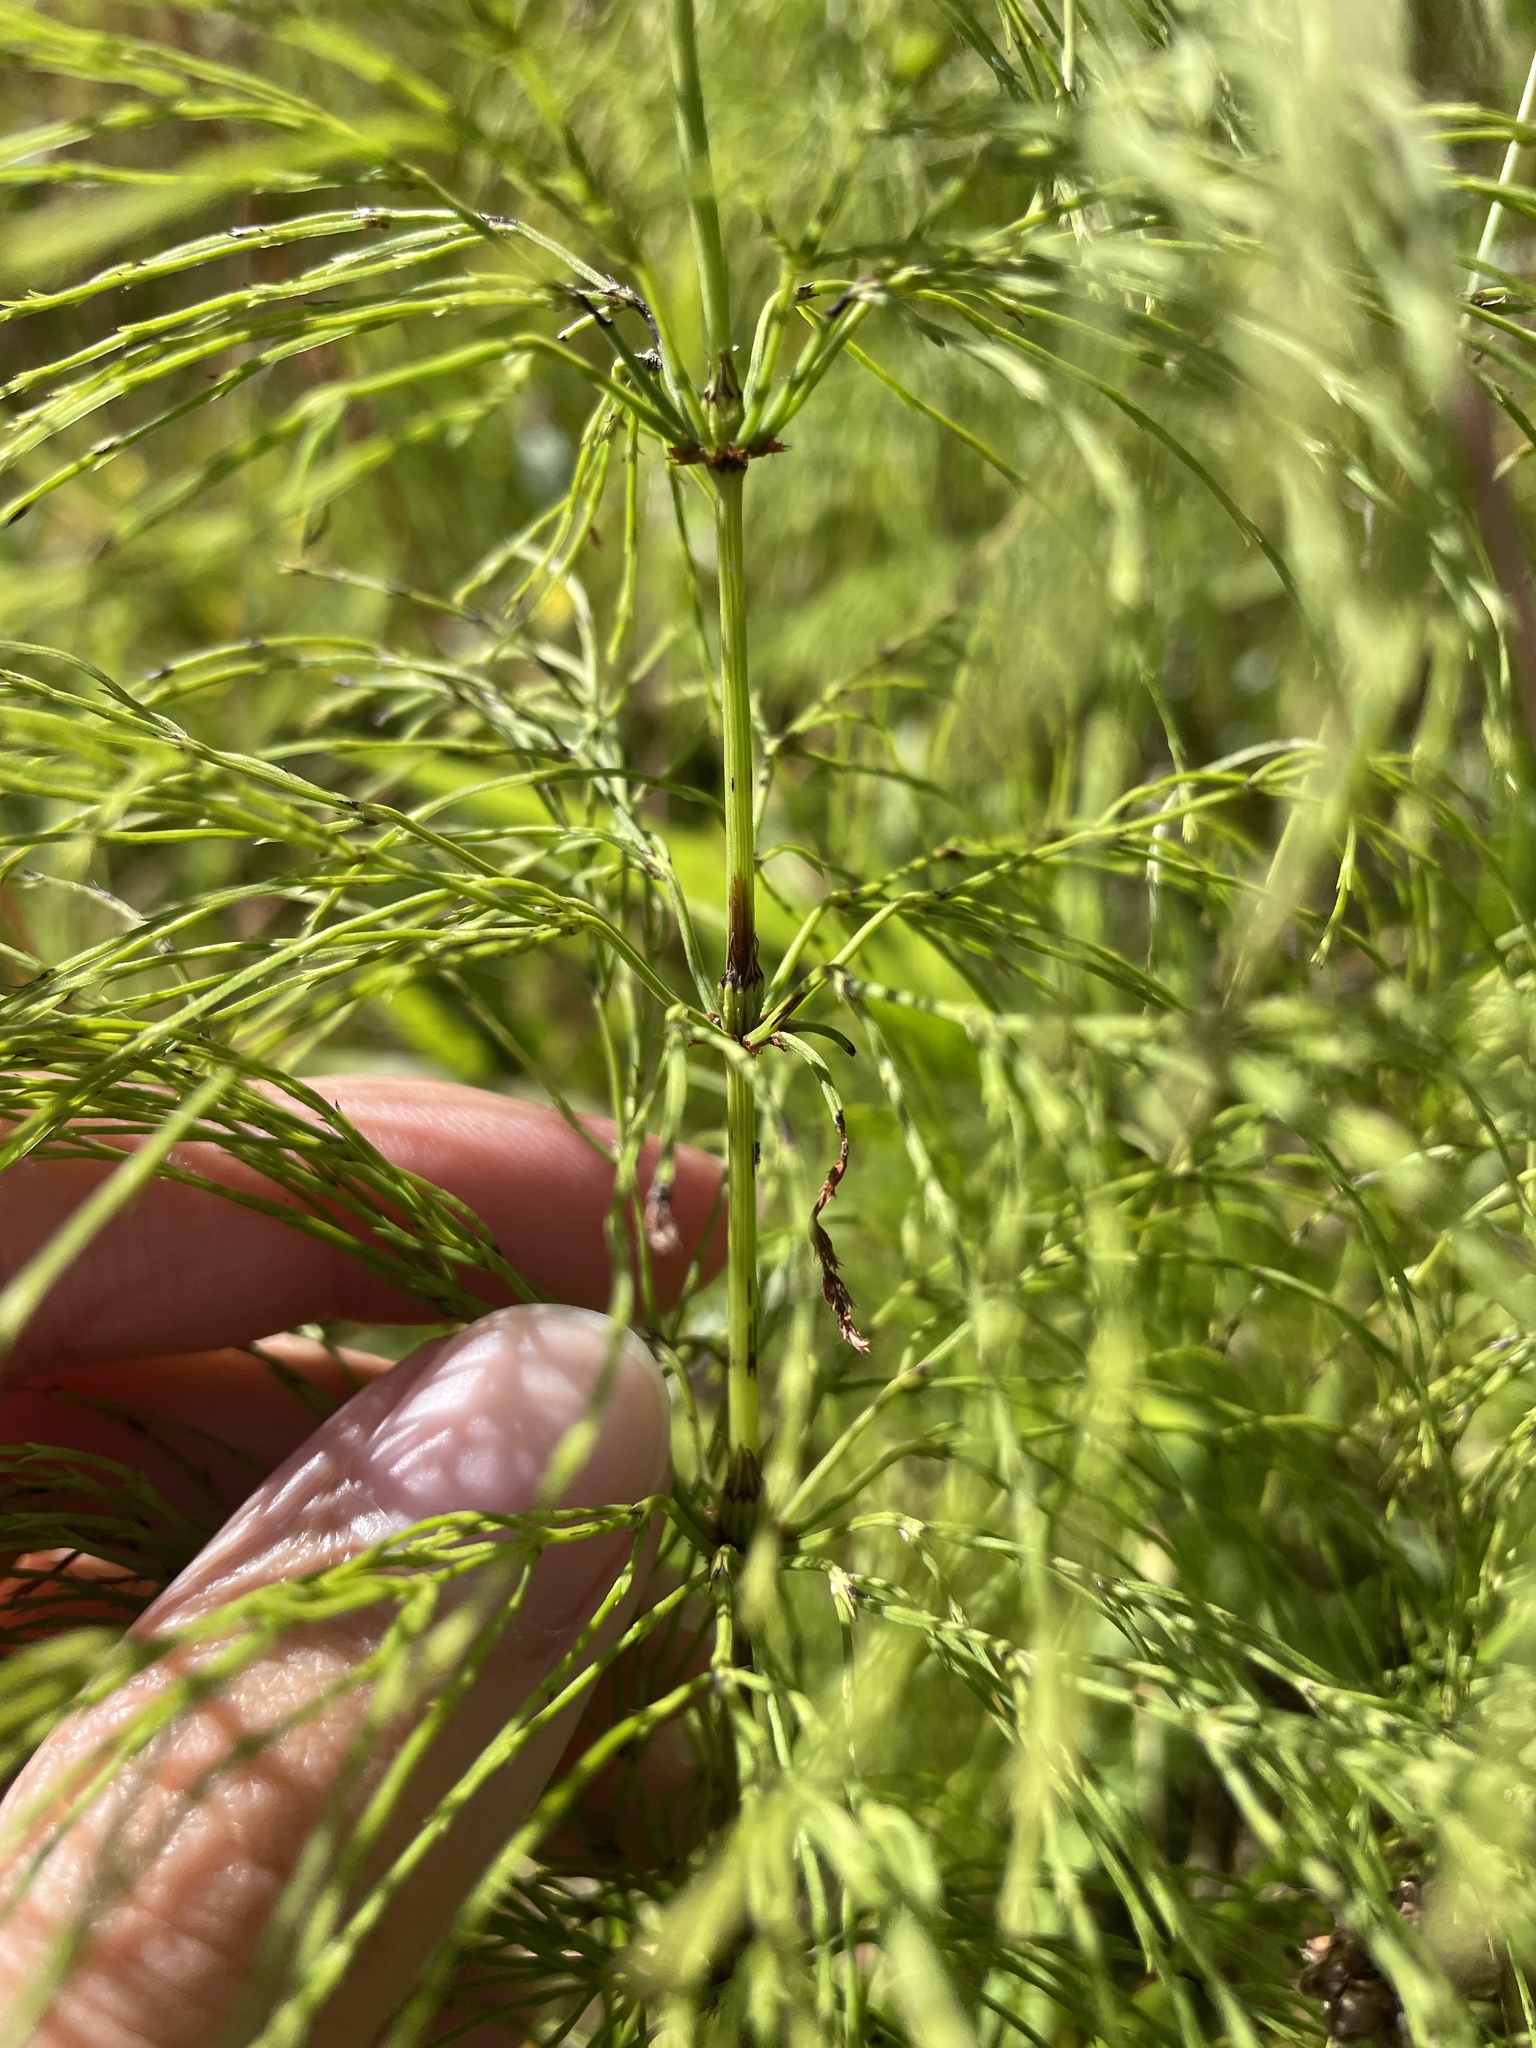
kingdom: Plantae
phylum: Tracheophyta
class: Polypodiopsida
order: Equisetales
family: Equisetaceae
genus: Equisetum
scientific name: Equisetum sylvaticum
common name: Wood horsetail
